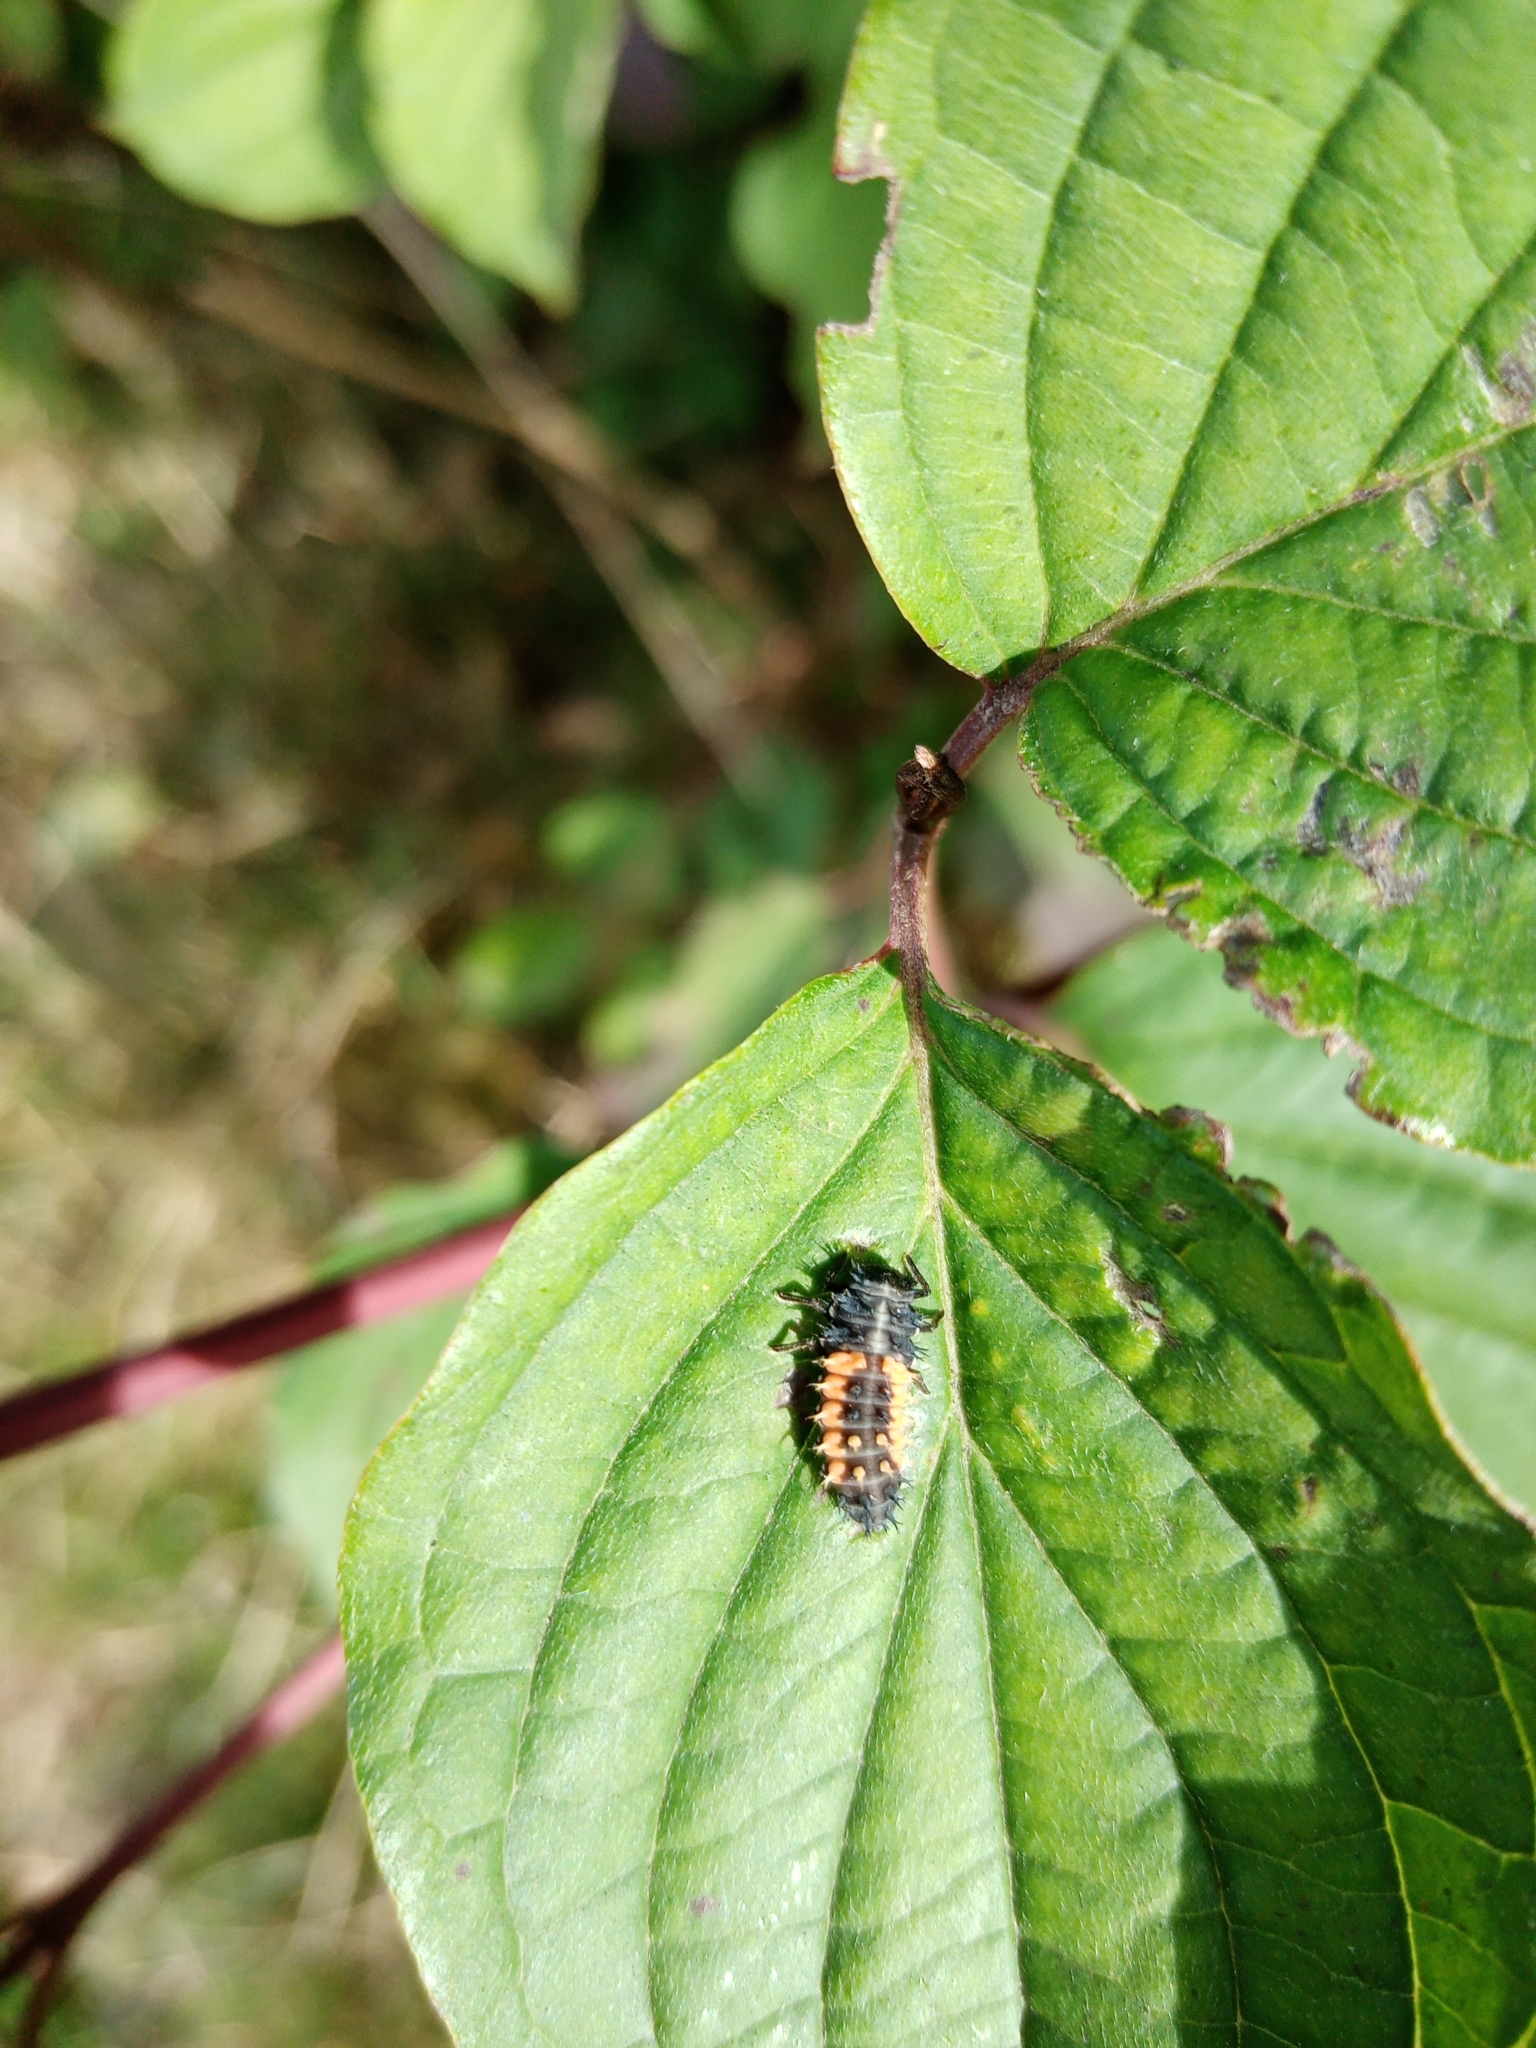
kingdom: Animalia
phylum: Arthropoda
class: Insecta
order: Coleoptera
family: Coccinellidae
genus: Harmonia
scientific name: Harmonia axyridis
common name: Harlequin ladybird
